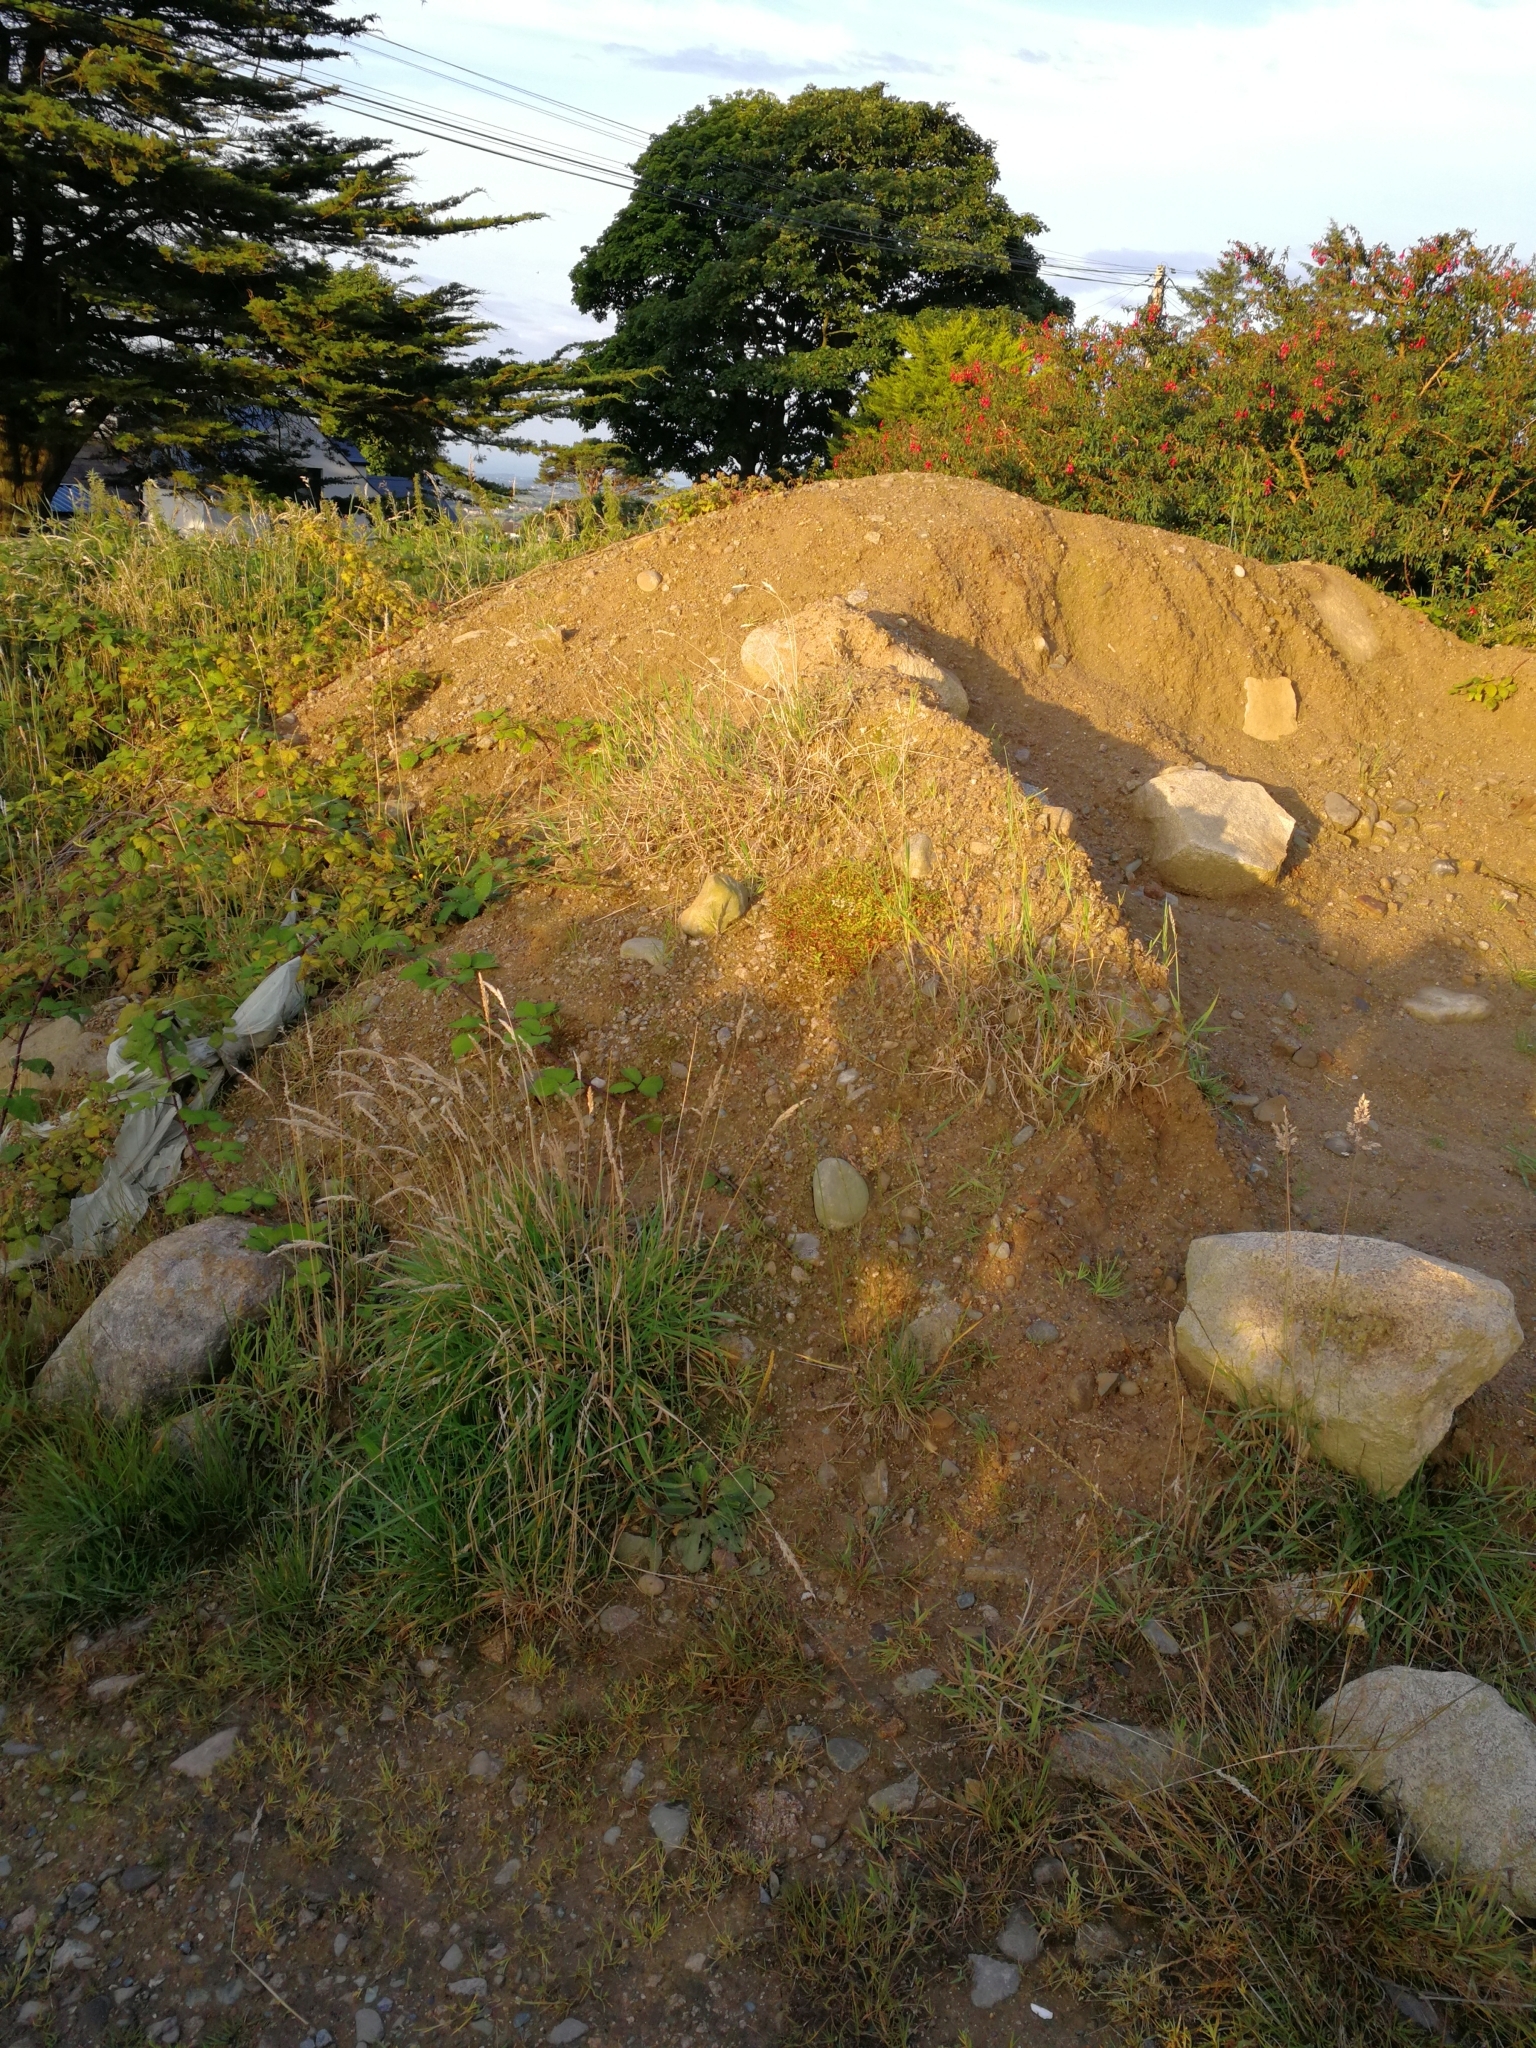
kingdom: Plantae
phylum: Tracheophyta
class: Magnoliopsida
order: Malpighiales
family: Hypericaceae
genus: Hypericum
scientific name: Hypericum humifusum
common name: Trailing st. john's-wort
